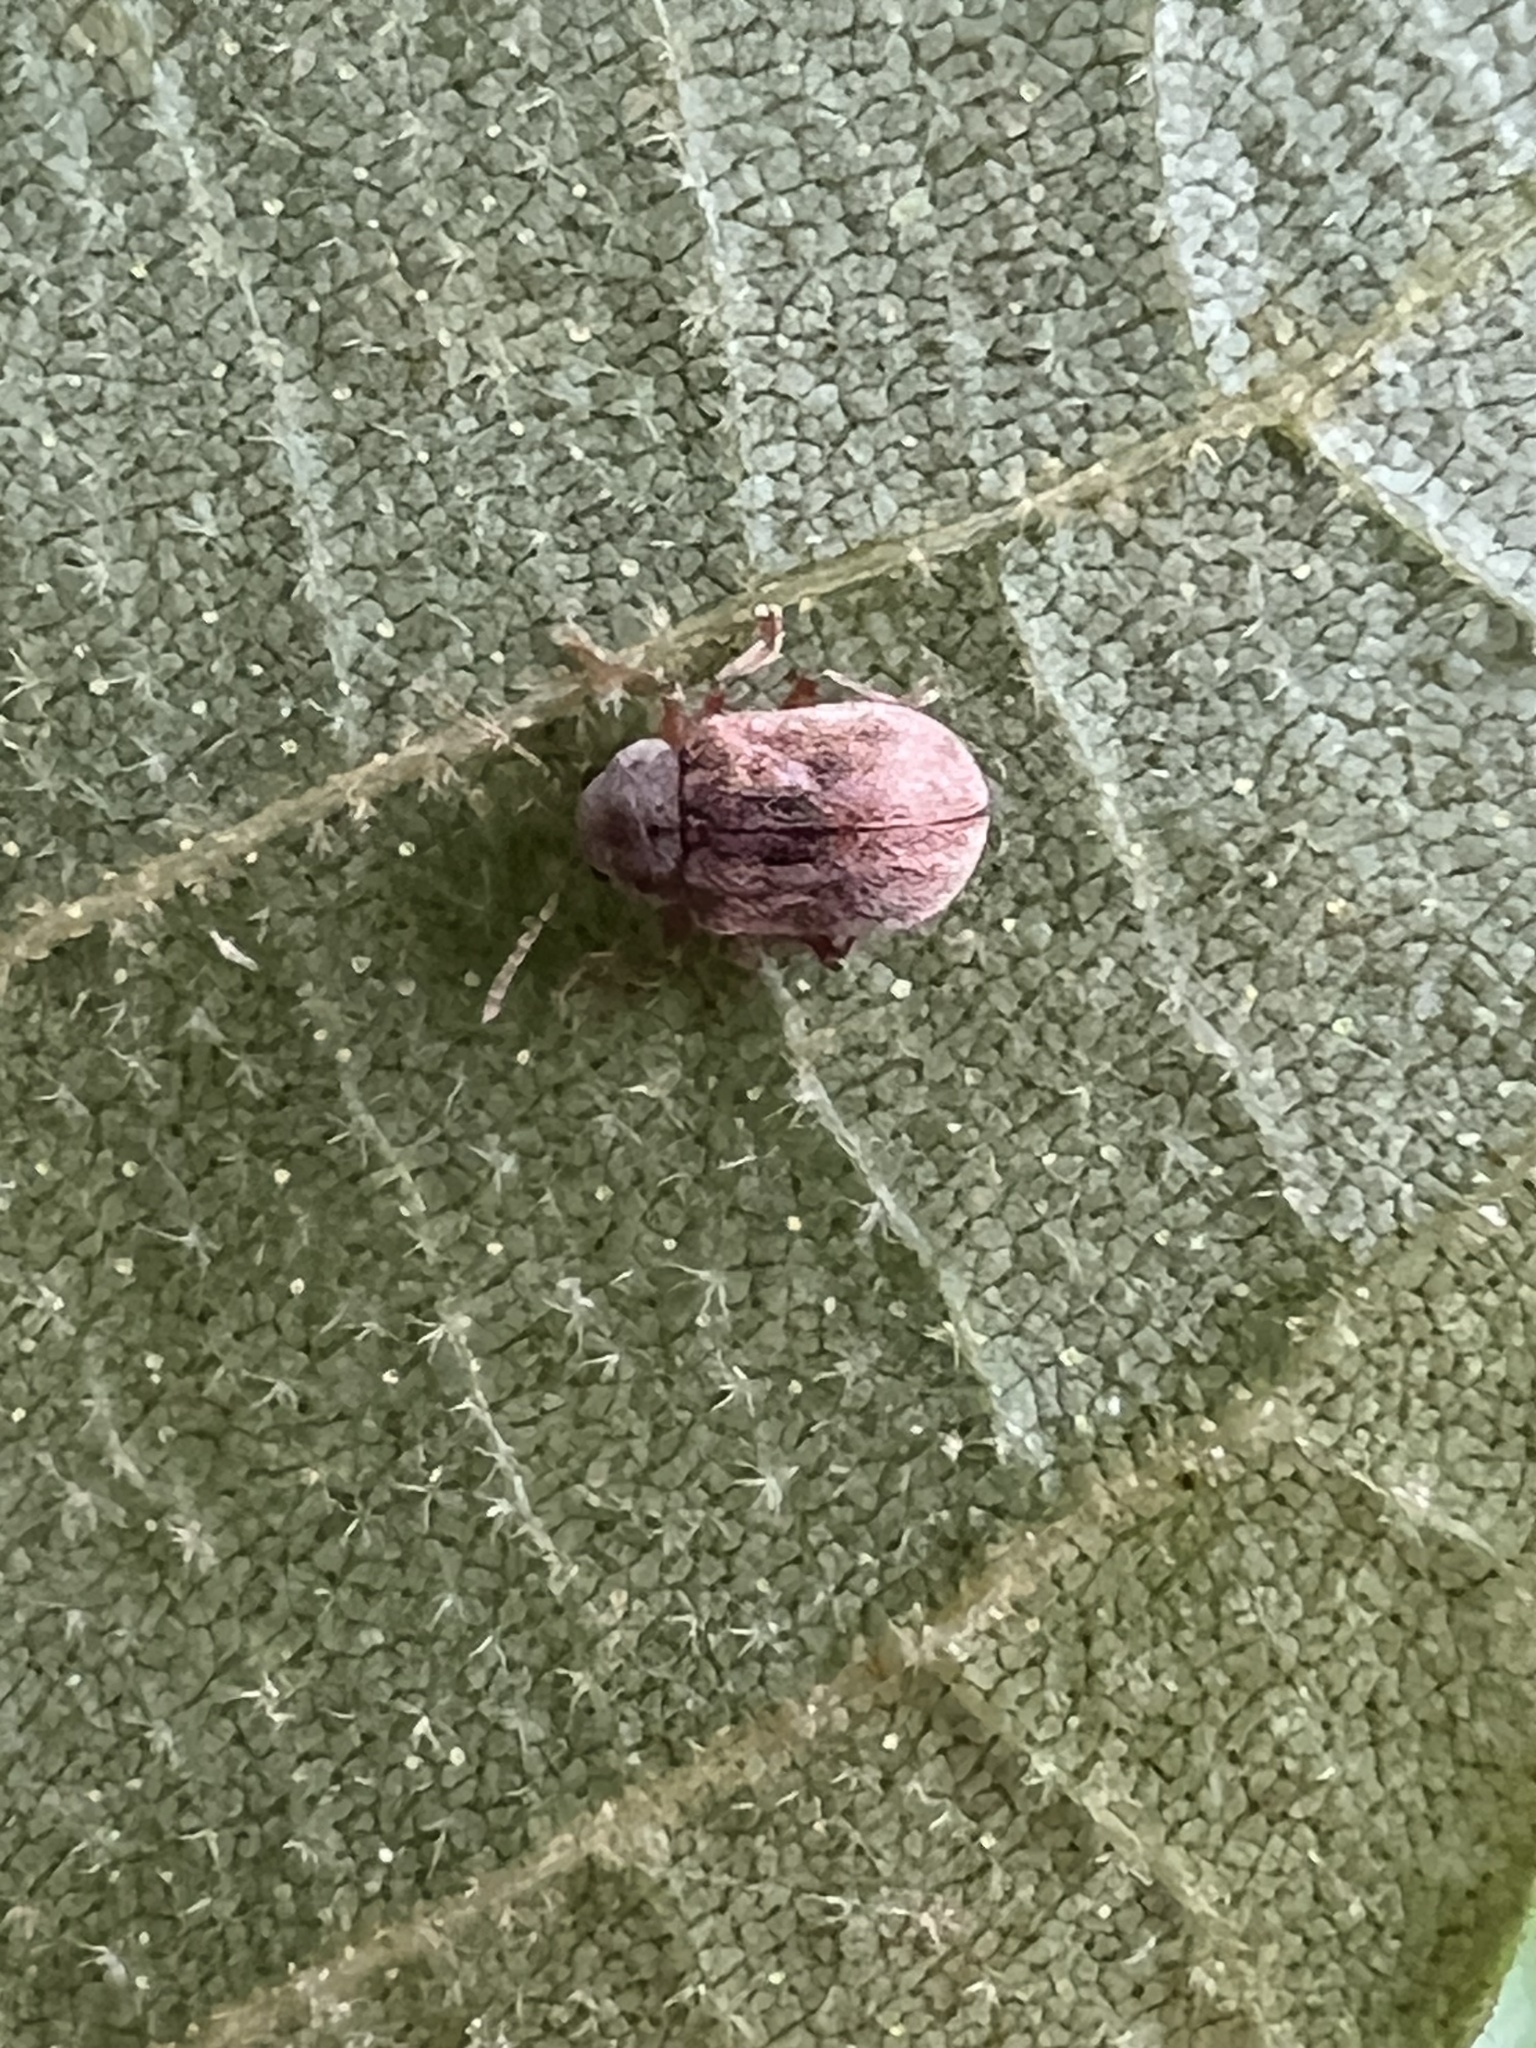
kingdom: Animalia
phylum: Arthropoda
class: Insecta
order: Coleoptera
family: Chrysomelidae
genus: Demotina
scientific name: Demotina modesta
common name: Leaf beetle
